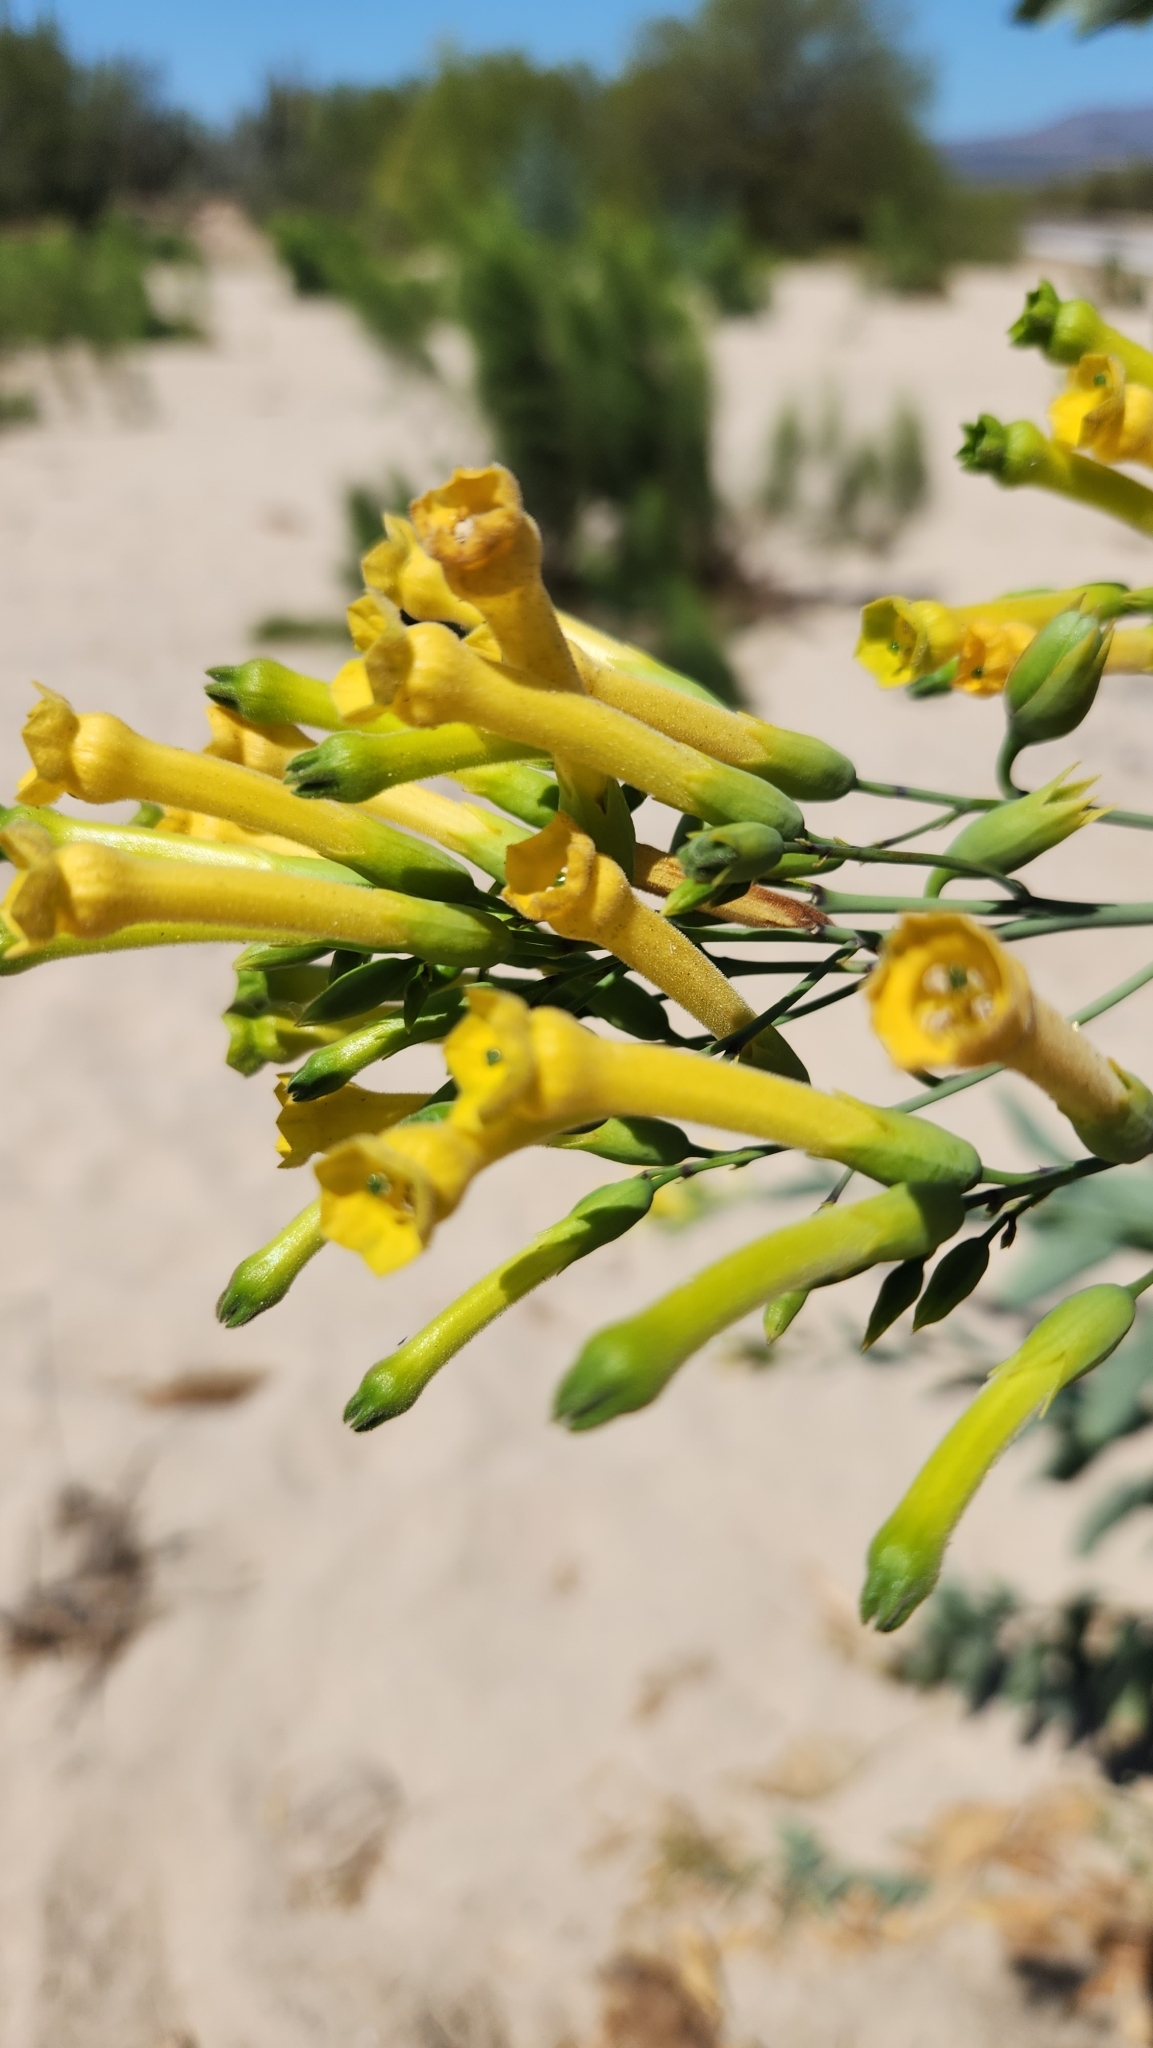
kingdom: Plantae
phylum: Tracheophyta
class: Magnoliopsida
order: Solanales
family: Solanaceae
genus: Nicotiana
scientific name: Nicotiana glauca
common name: Tree tobacco
